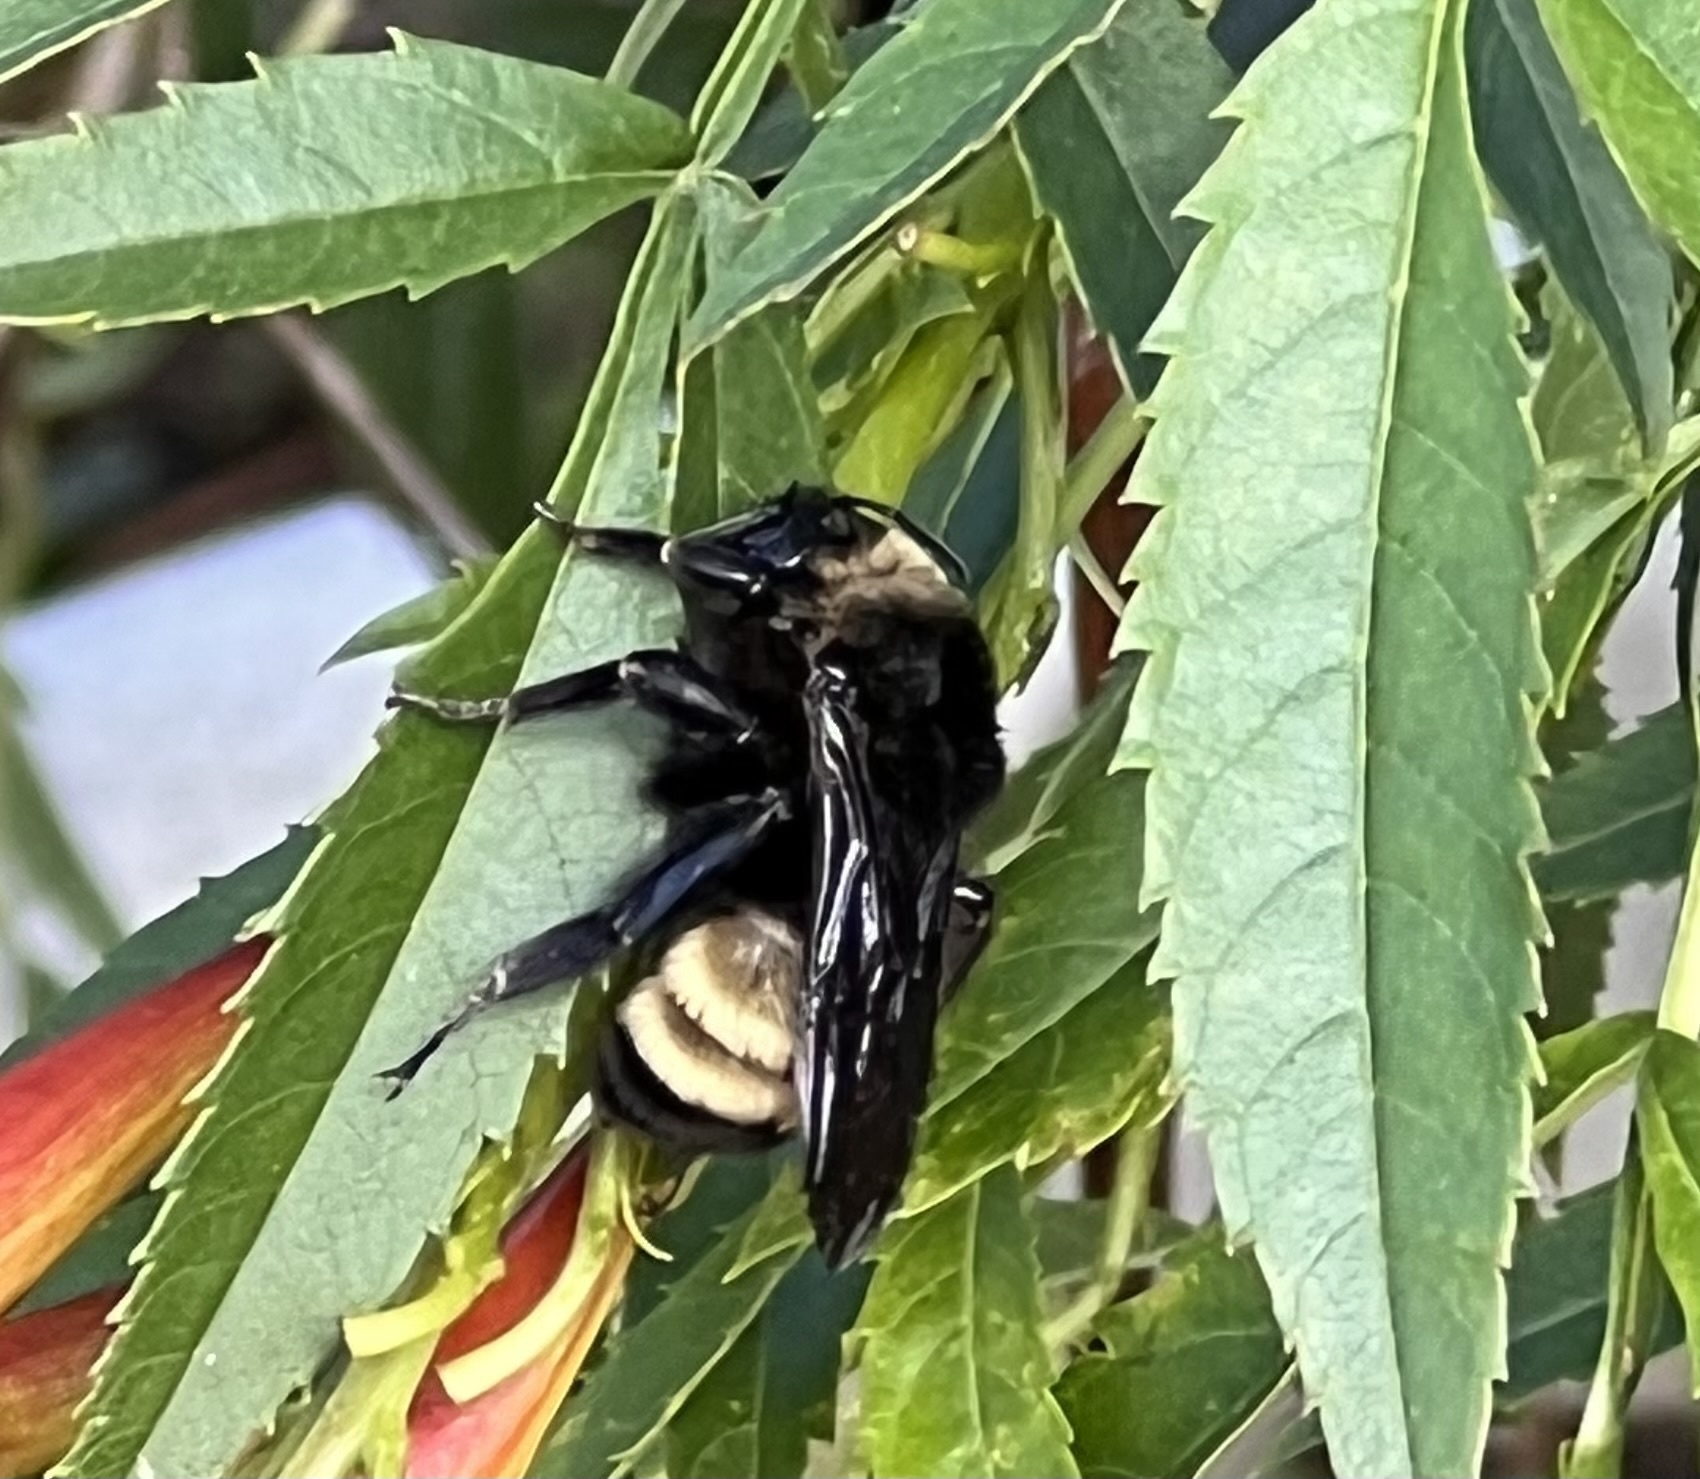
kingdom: Animalia
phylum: Arthropoda
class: Insecta
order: Hymenoptera
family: Apidae
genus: Bombus
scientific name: Bombus pensylvanicus
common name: Bumble bee
